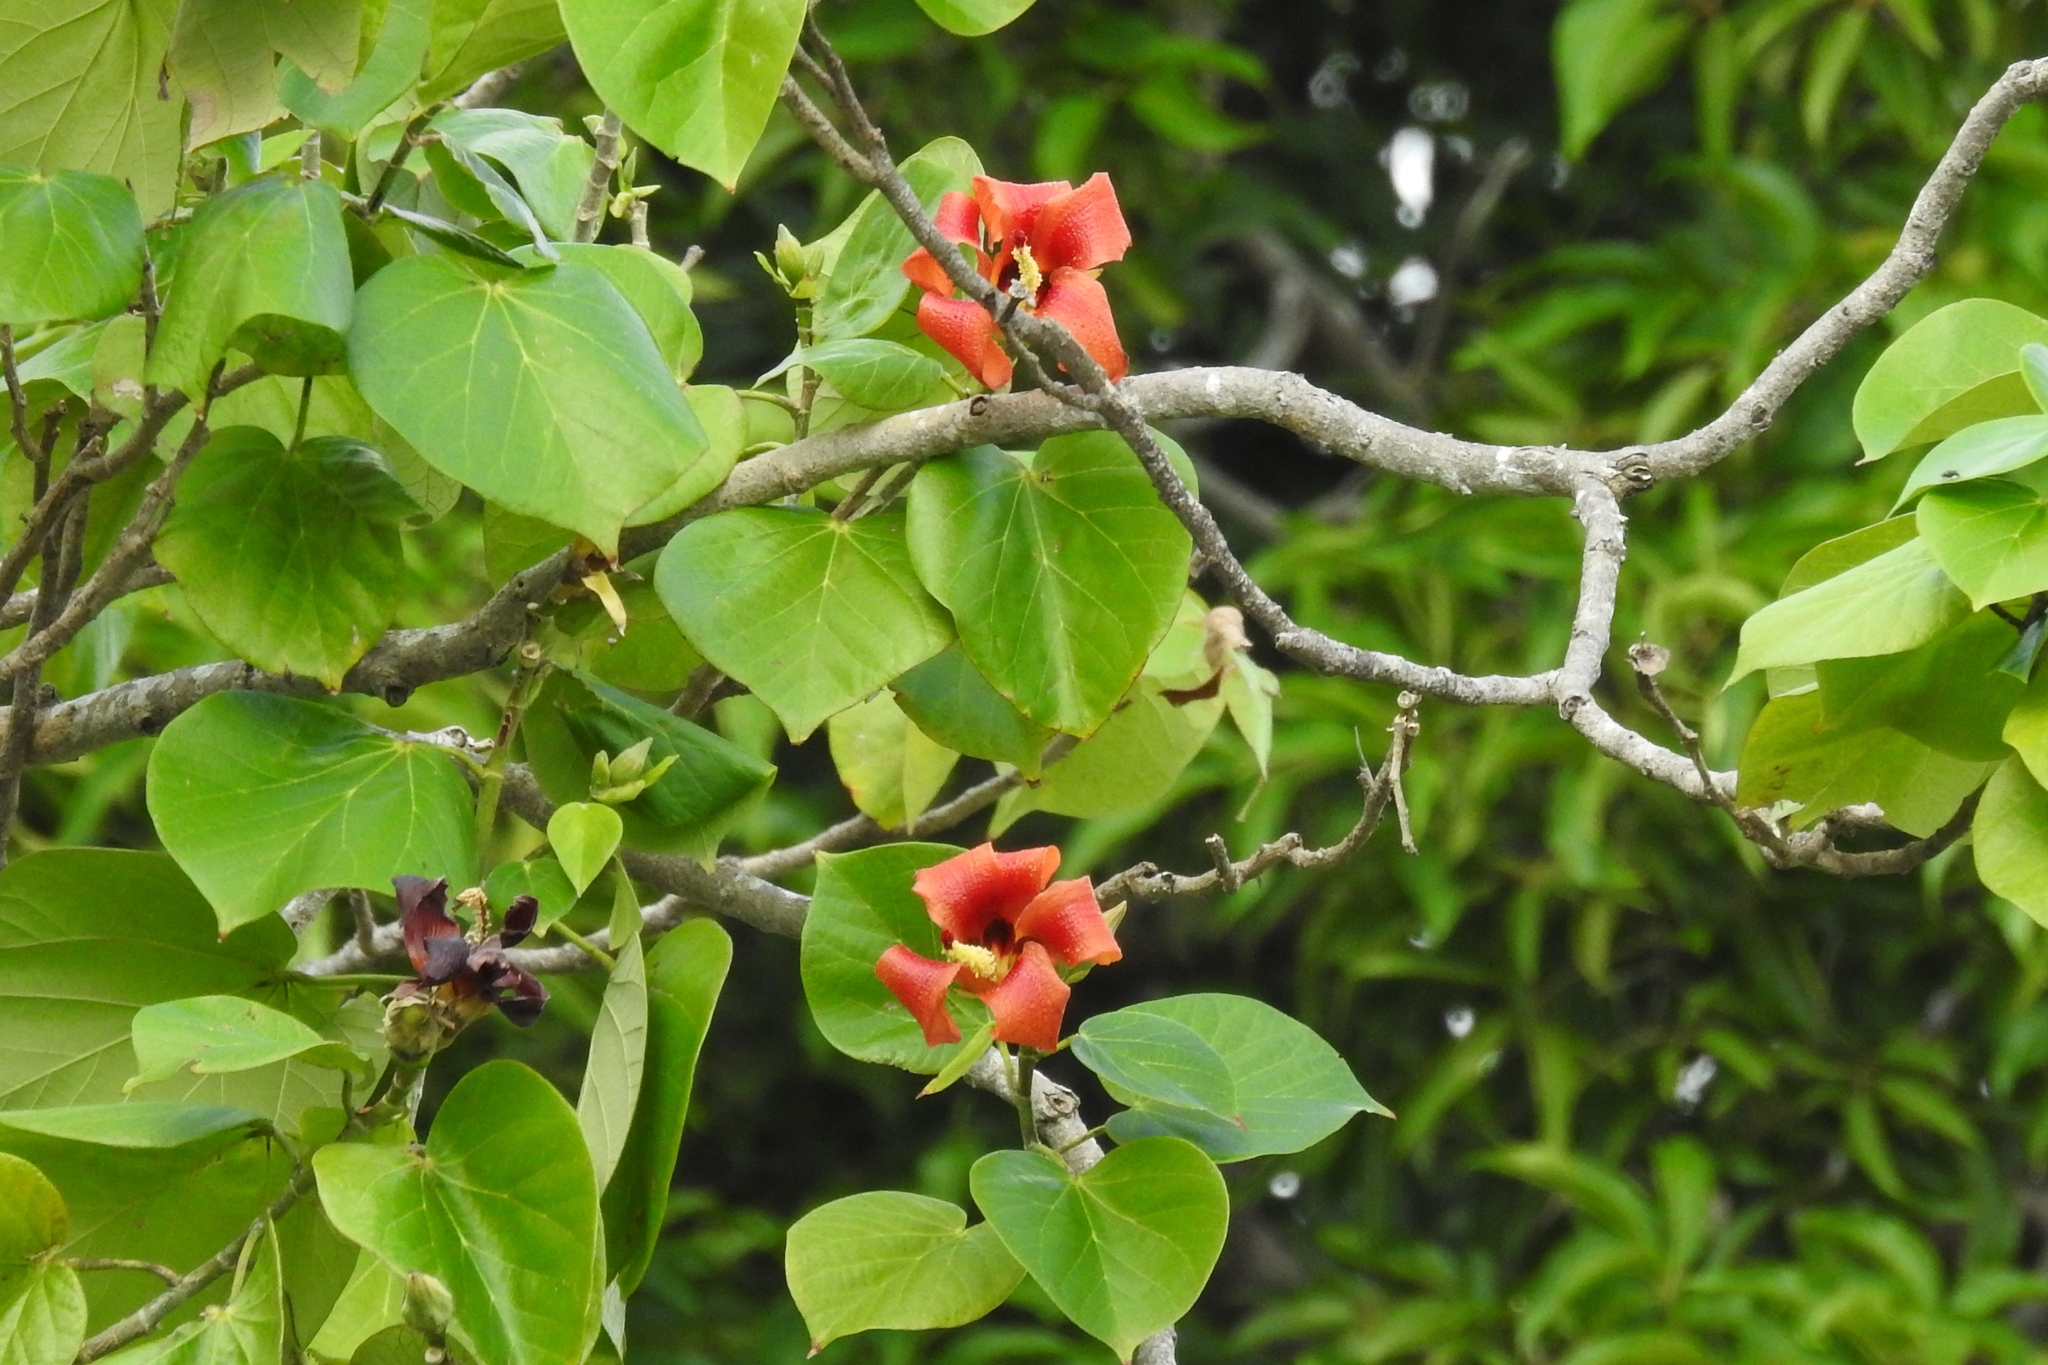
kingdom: Plantae
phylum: Tracheophyta
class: Magnoliopsida
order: Malvales
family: Malvaceae
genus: Talipariti
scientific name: Talipariti
